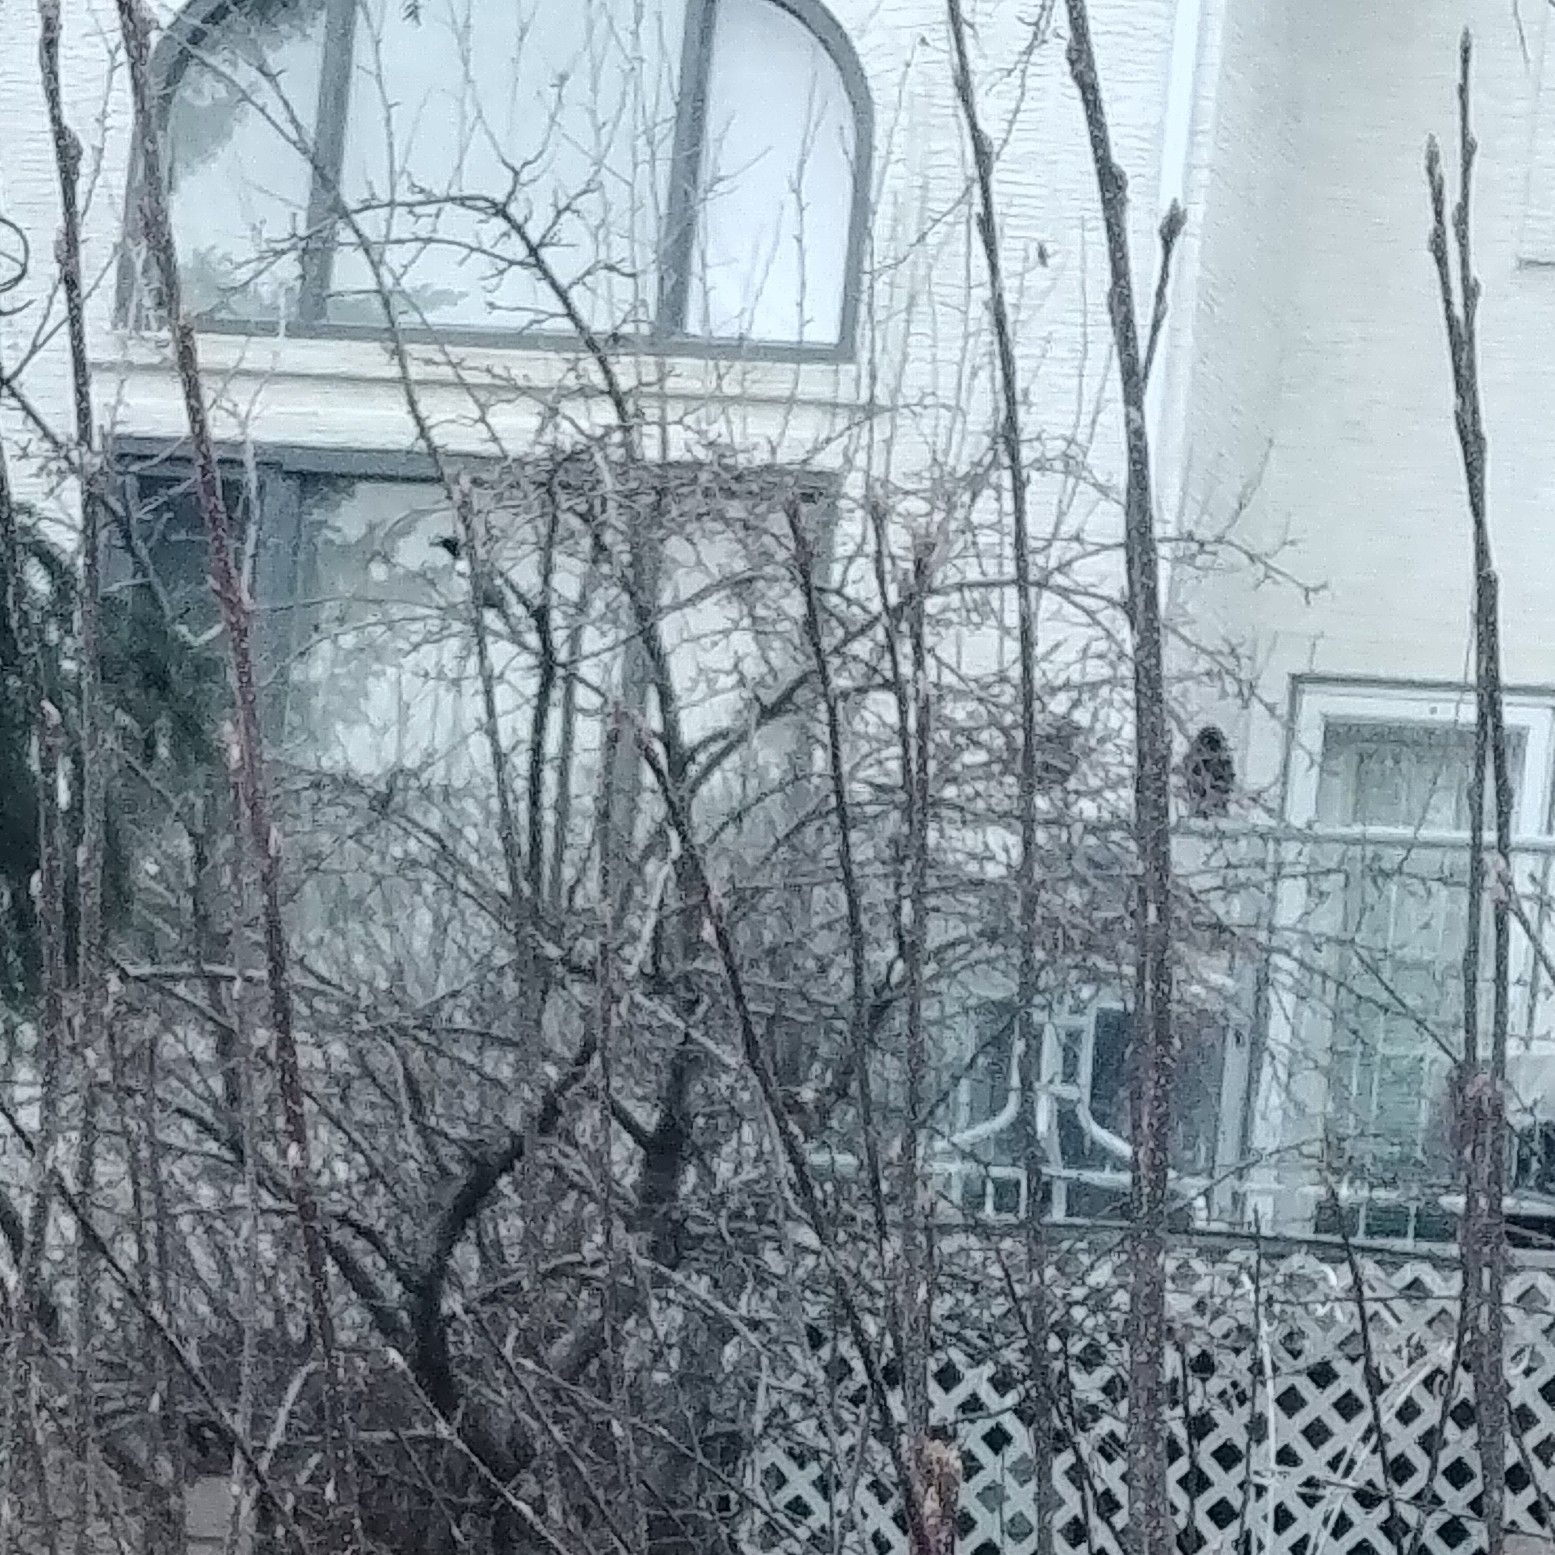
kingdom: Animalia
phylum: Chordata
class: Aves
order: Passeriformes
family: Corvidae
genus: Pica
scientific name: Pica hudsonia
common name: Black-billed magpie
